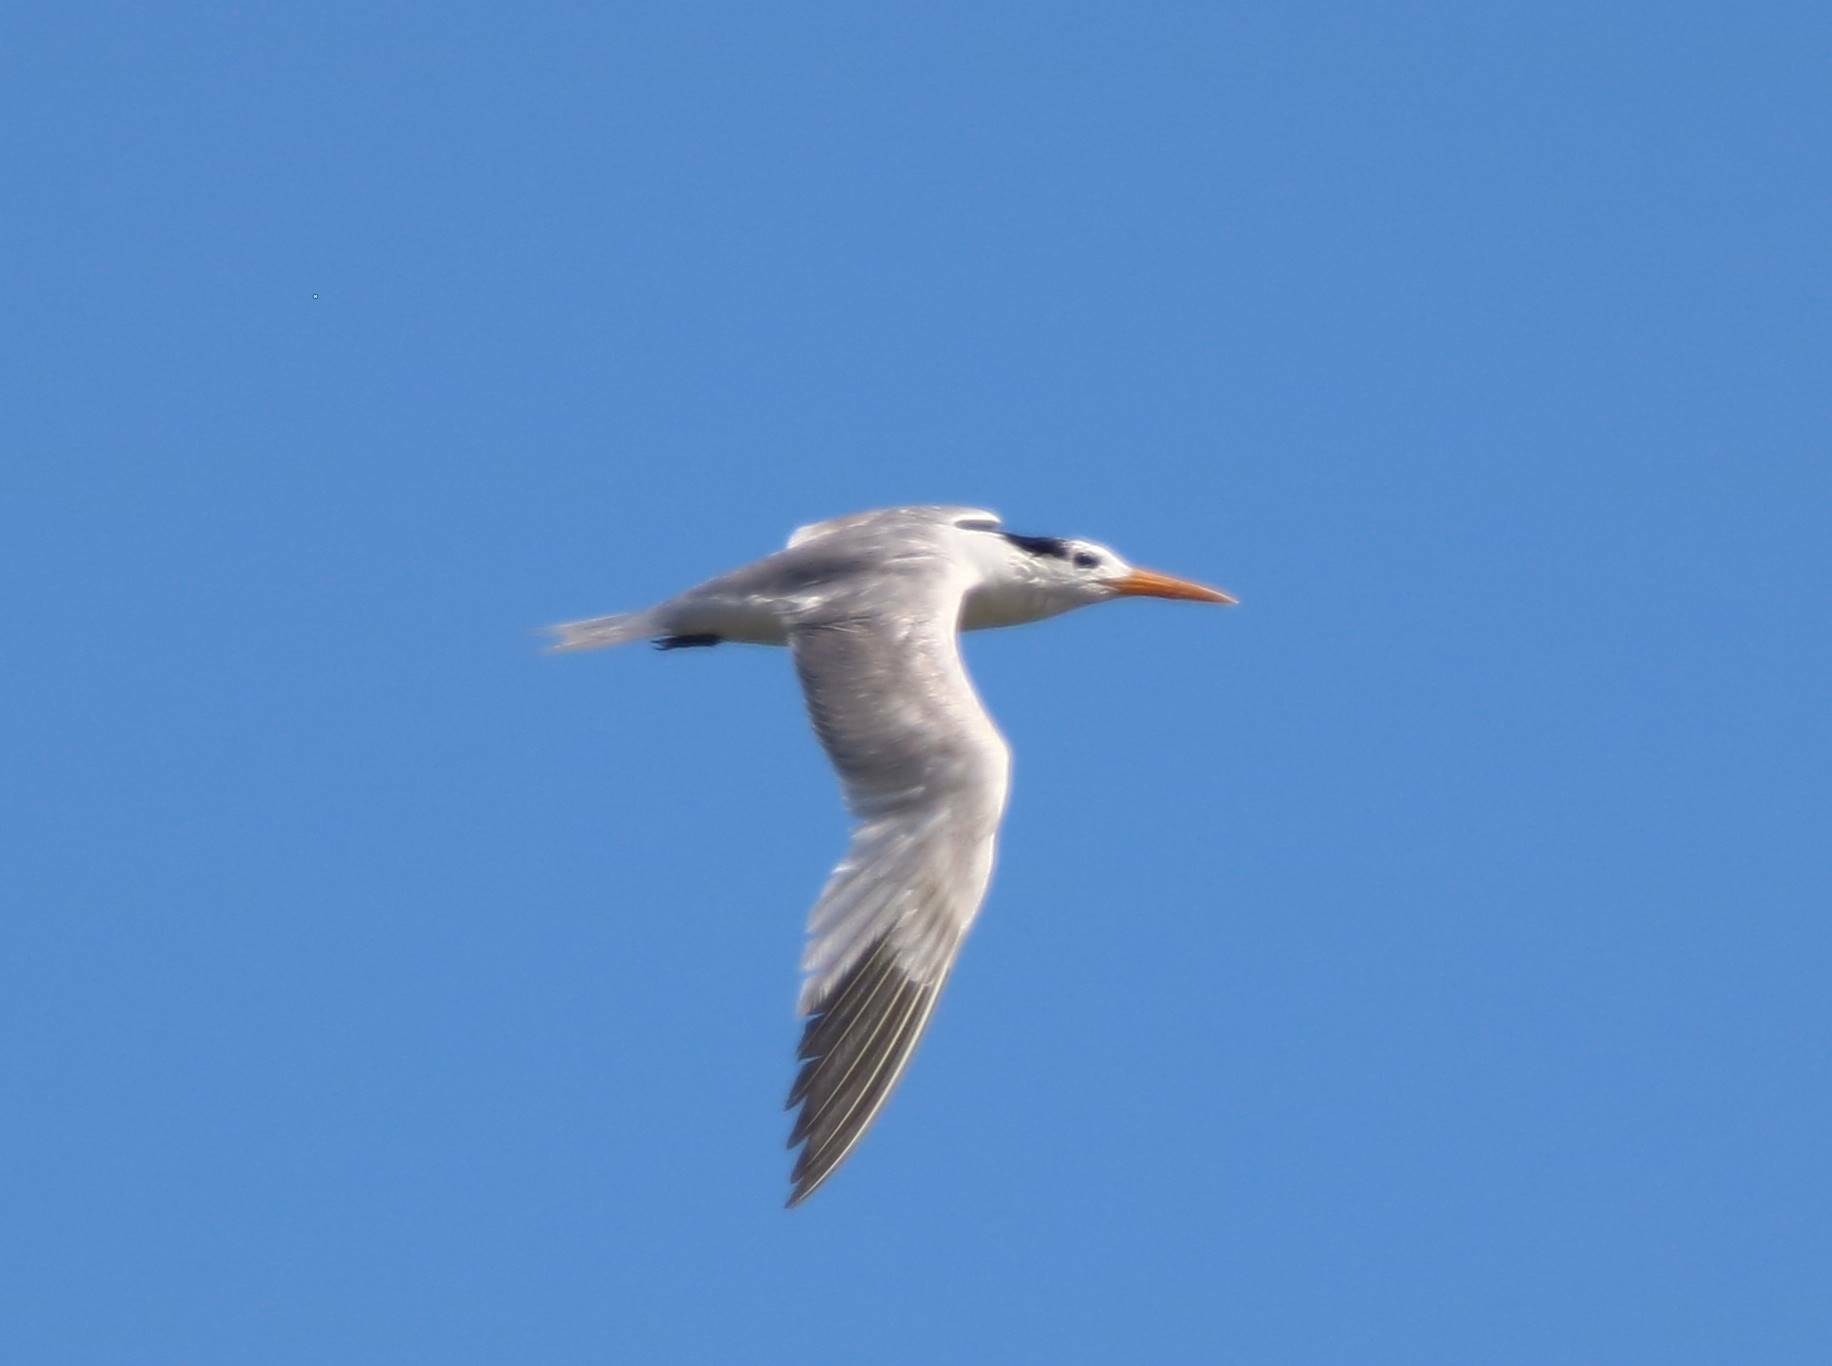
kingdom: Animalia
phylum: Chordata
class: Aves
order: Charadriiformes
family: Laridae
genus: Thalasseus
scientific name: Thalasseus bengalensis
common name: Lesser crested tern
